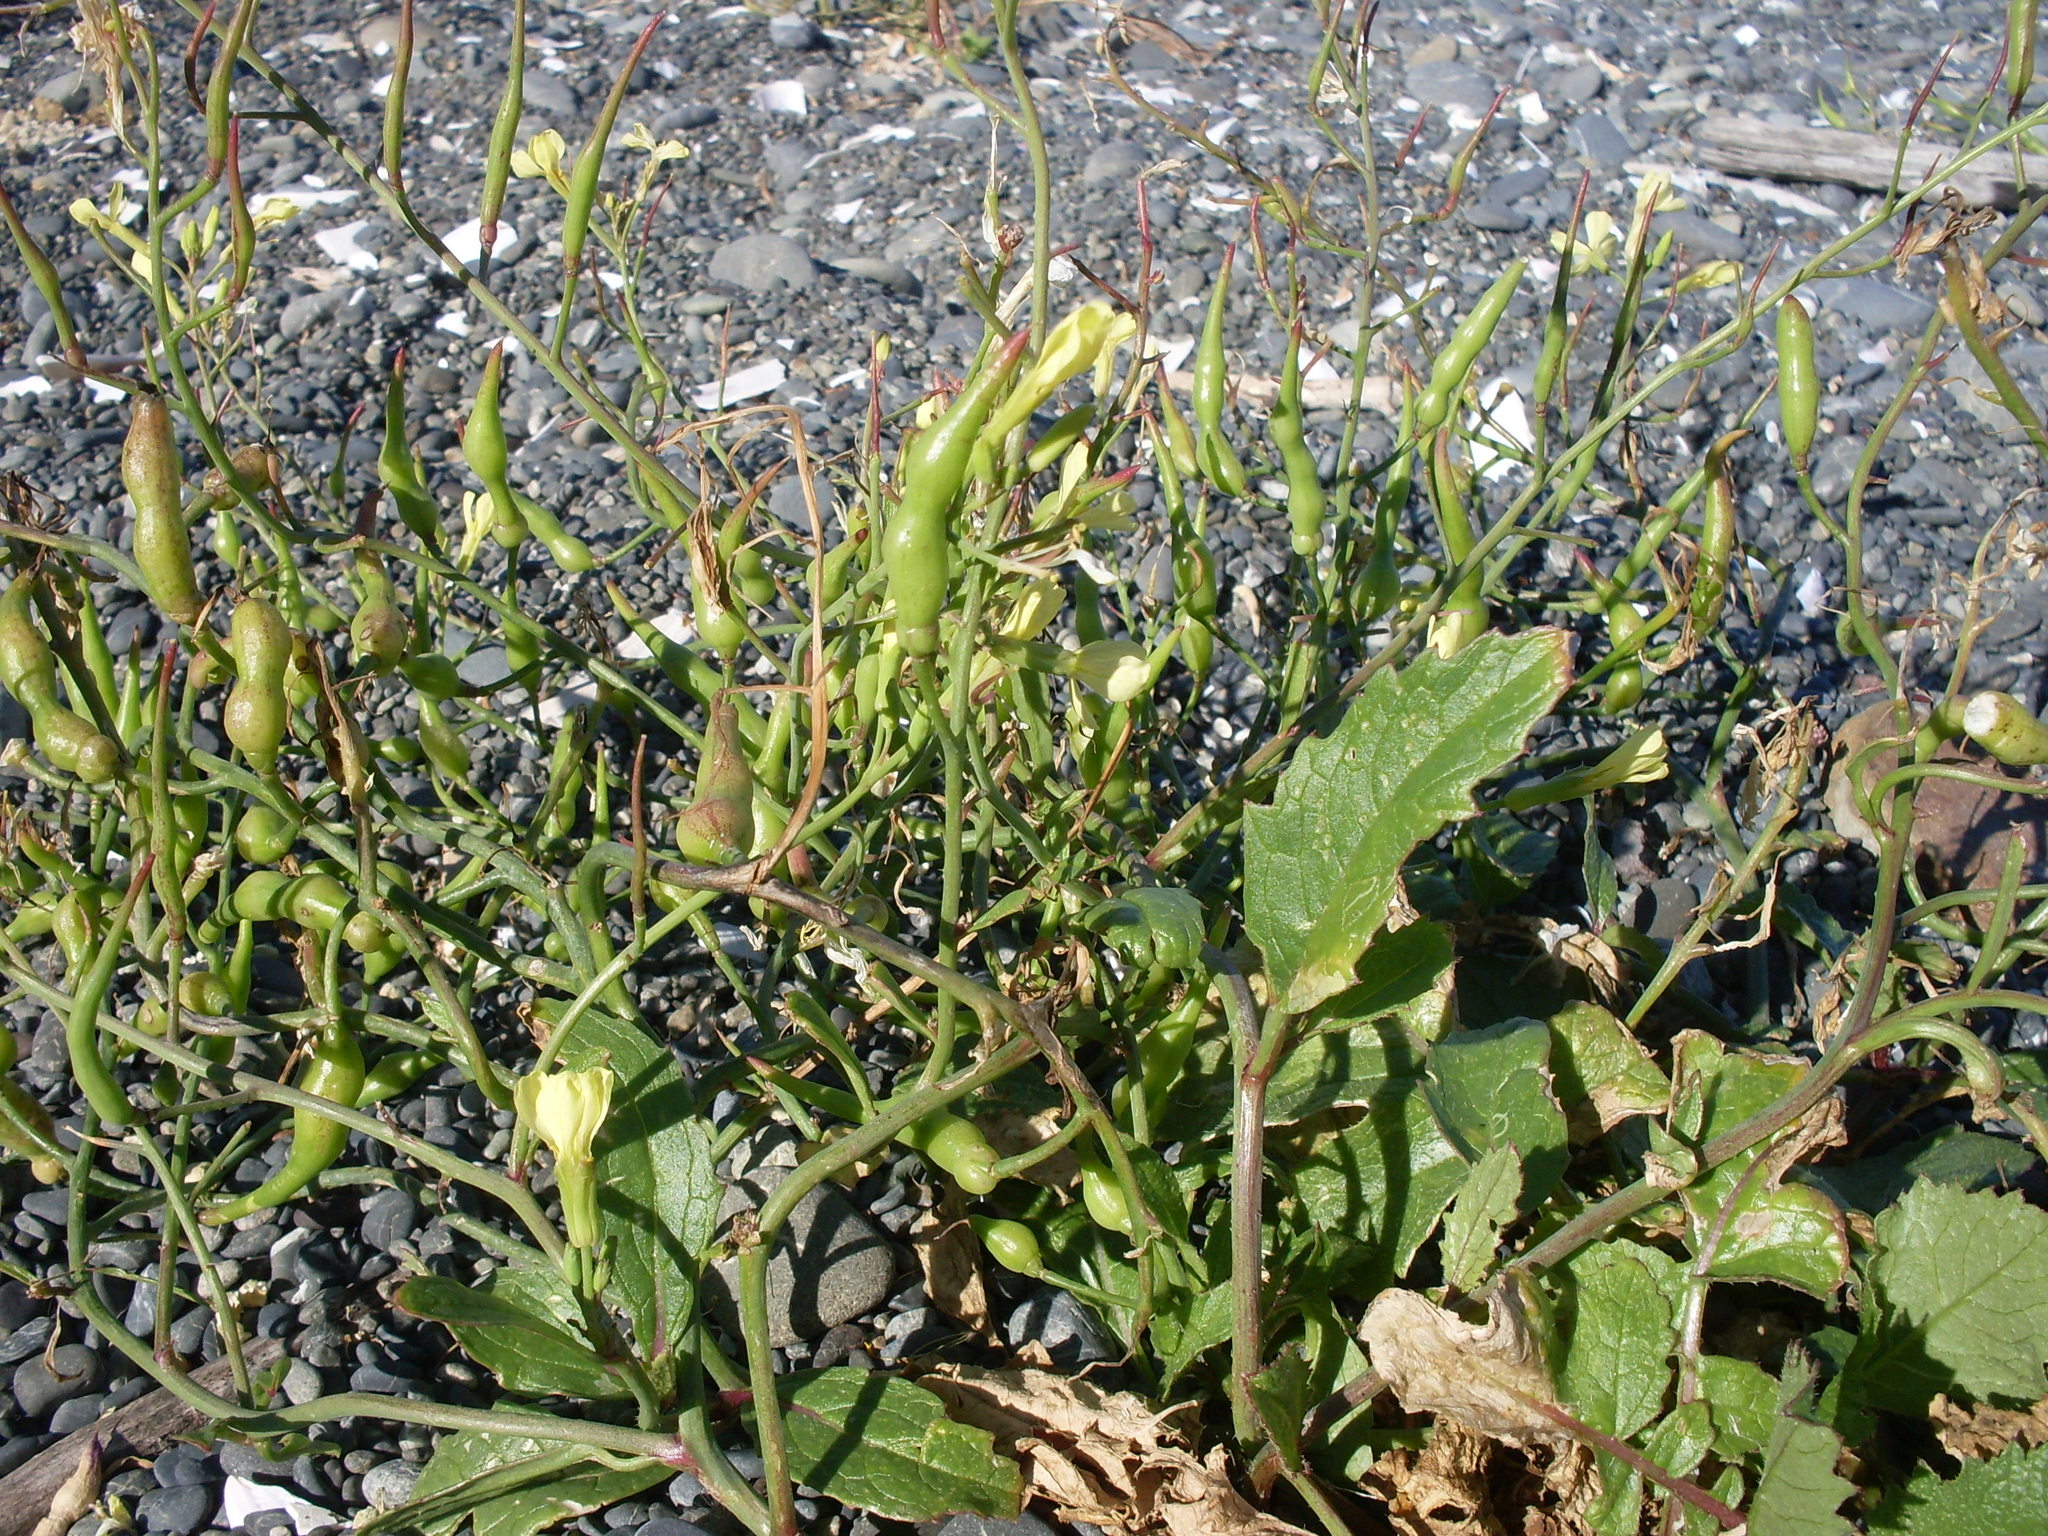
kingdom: Plantae
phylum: Tracheophyta
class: Magnoliopsida
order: Brassicales
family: Brassicaceae
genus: Raphanus
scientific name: Raphanus raphanistrum
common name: Wild radish
